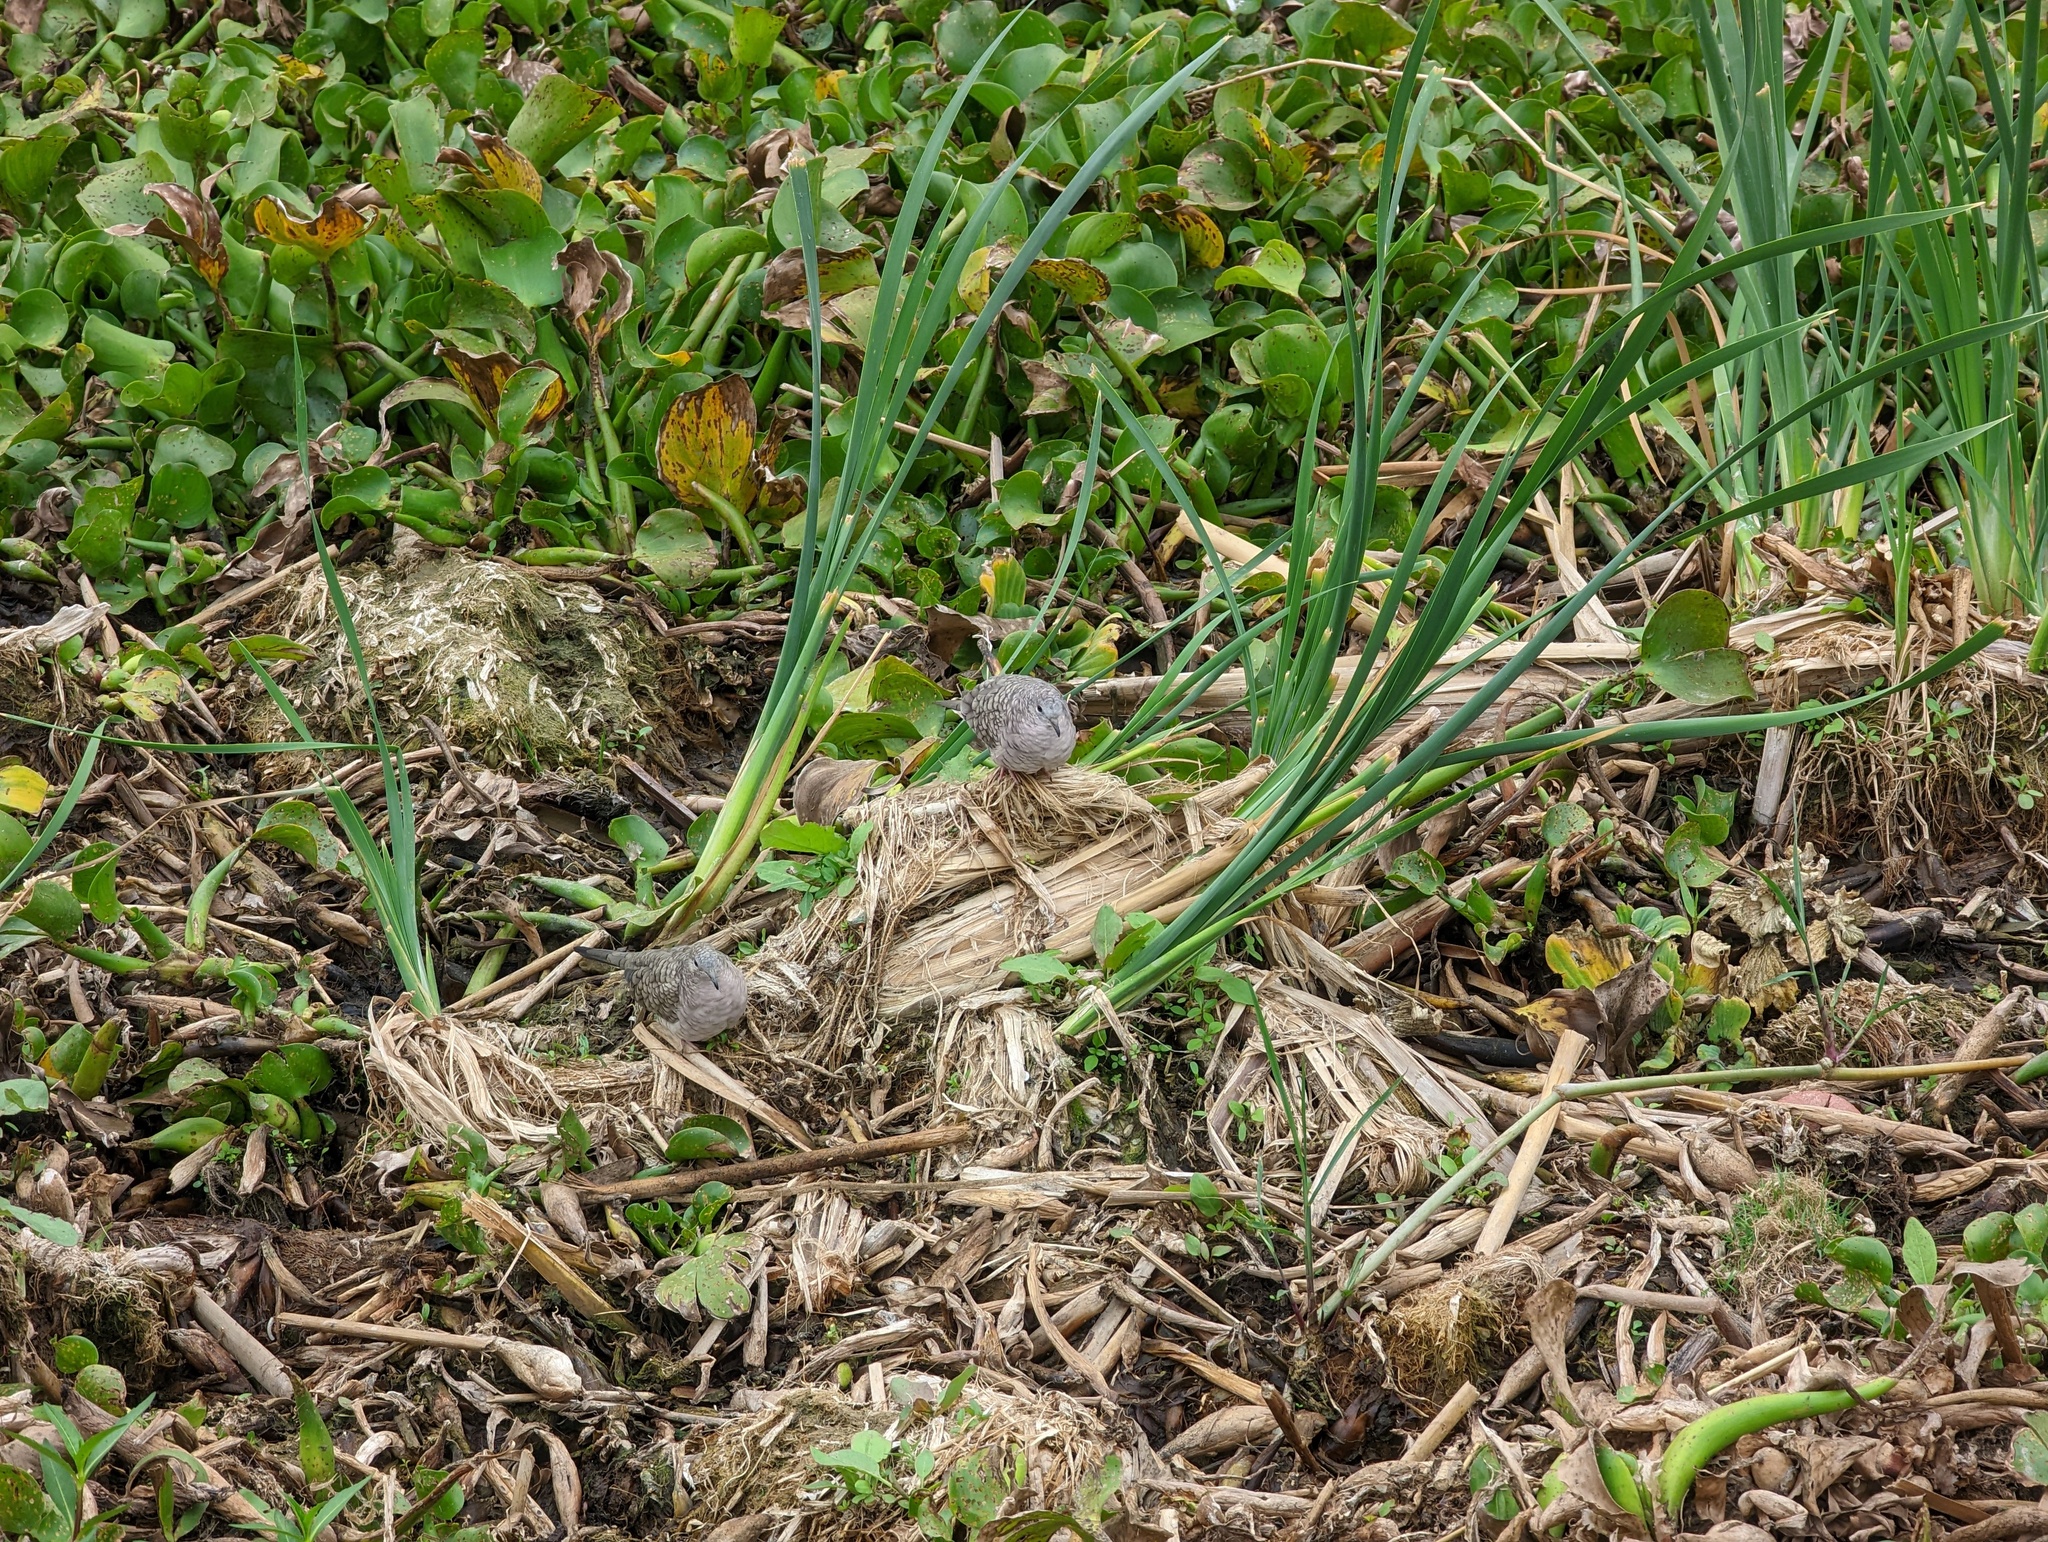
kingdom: Animalia
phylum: Chordata
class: Aves
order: Columbiformes
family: Columbidae
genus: Columbina
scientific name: Columbina inca
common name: Inca dove
